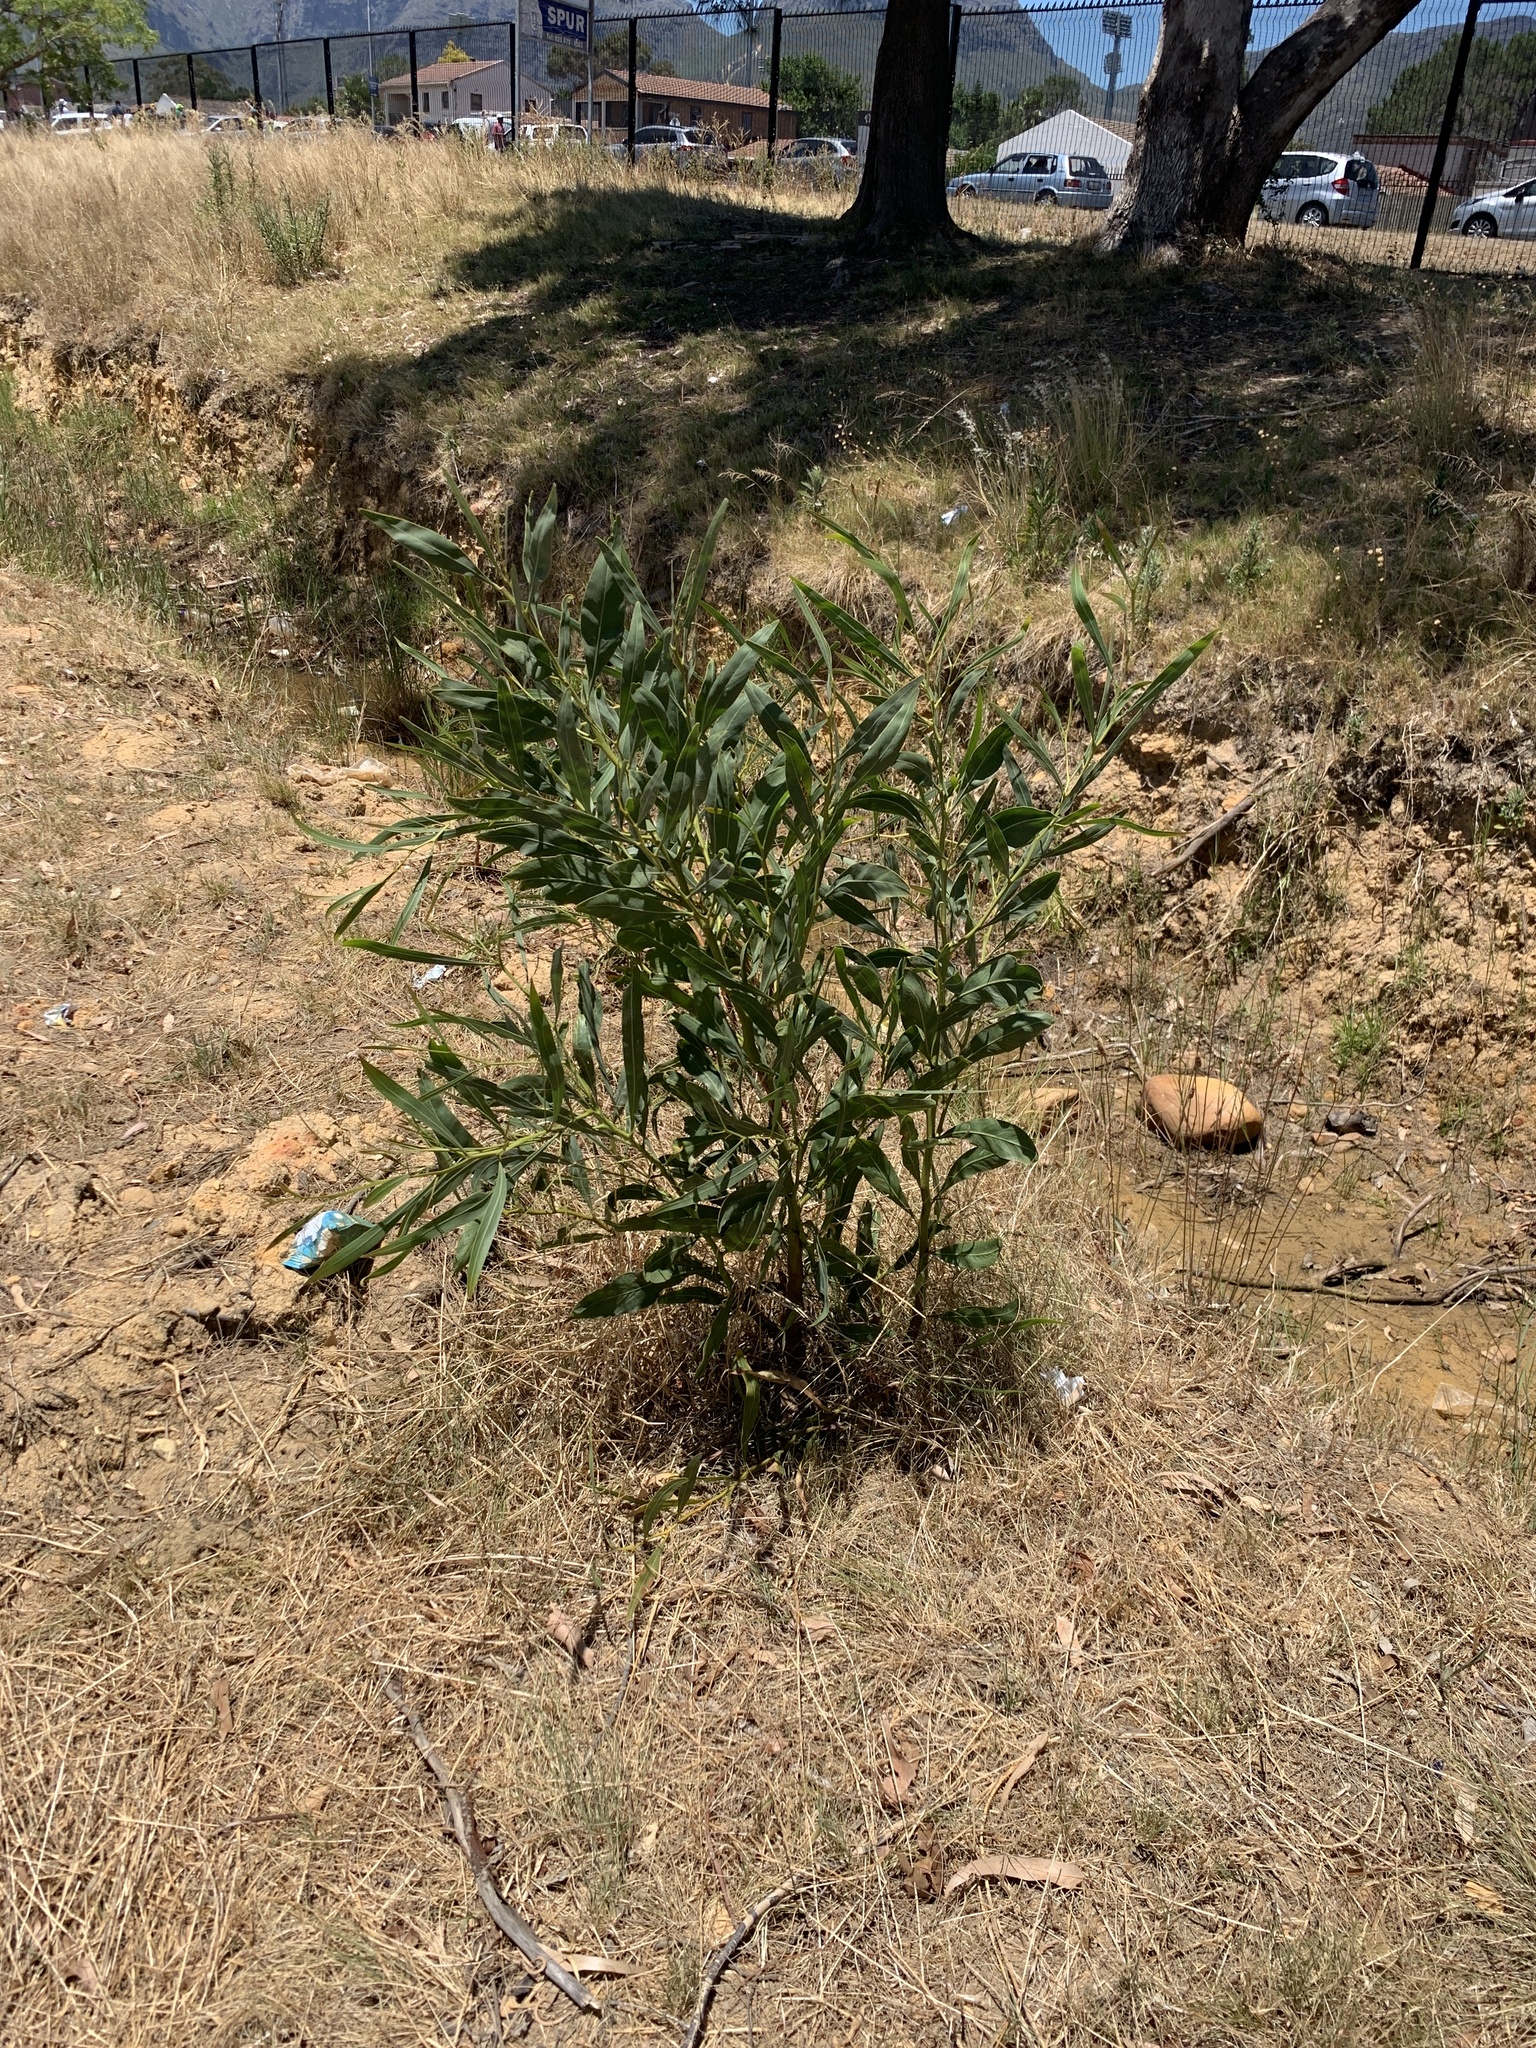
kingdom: Plantae
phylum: Tracheophyta
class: Magnoliopsida
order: Fabales
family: Fabaceae
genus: Acacia
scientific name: Acacia saligna
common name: Orange wattle
